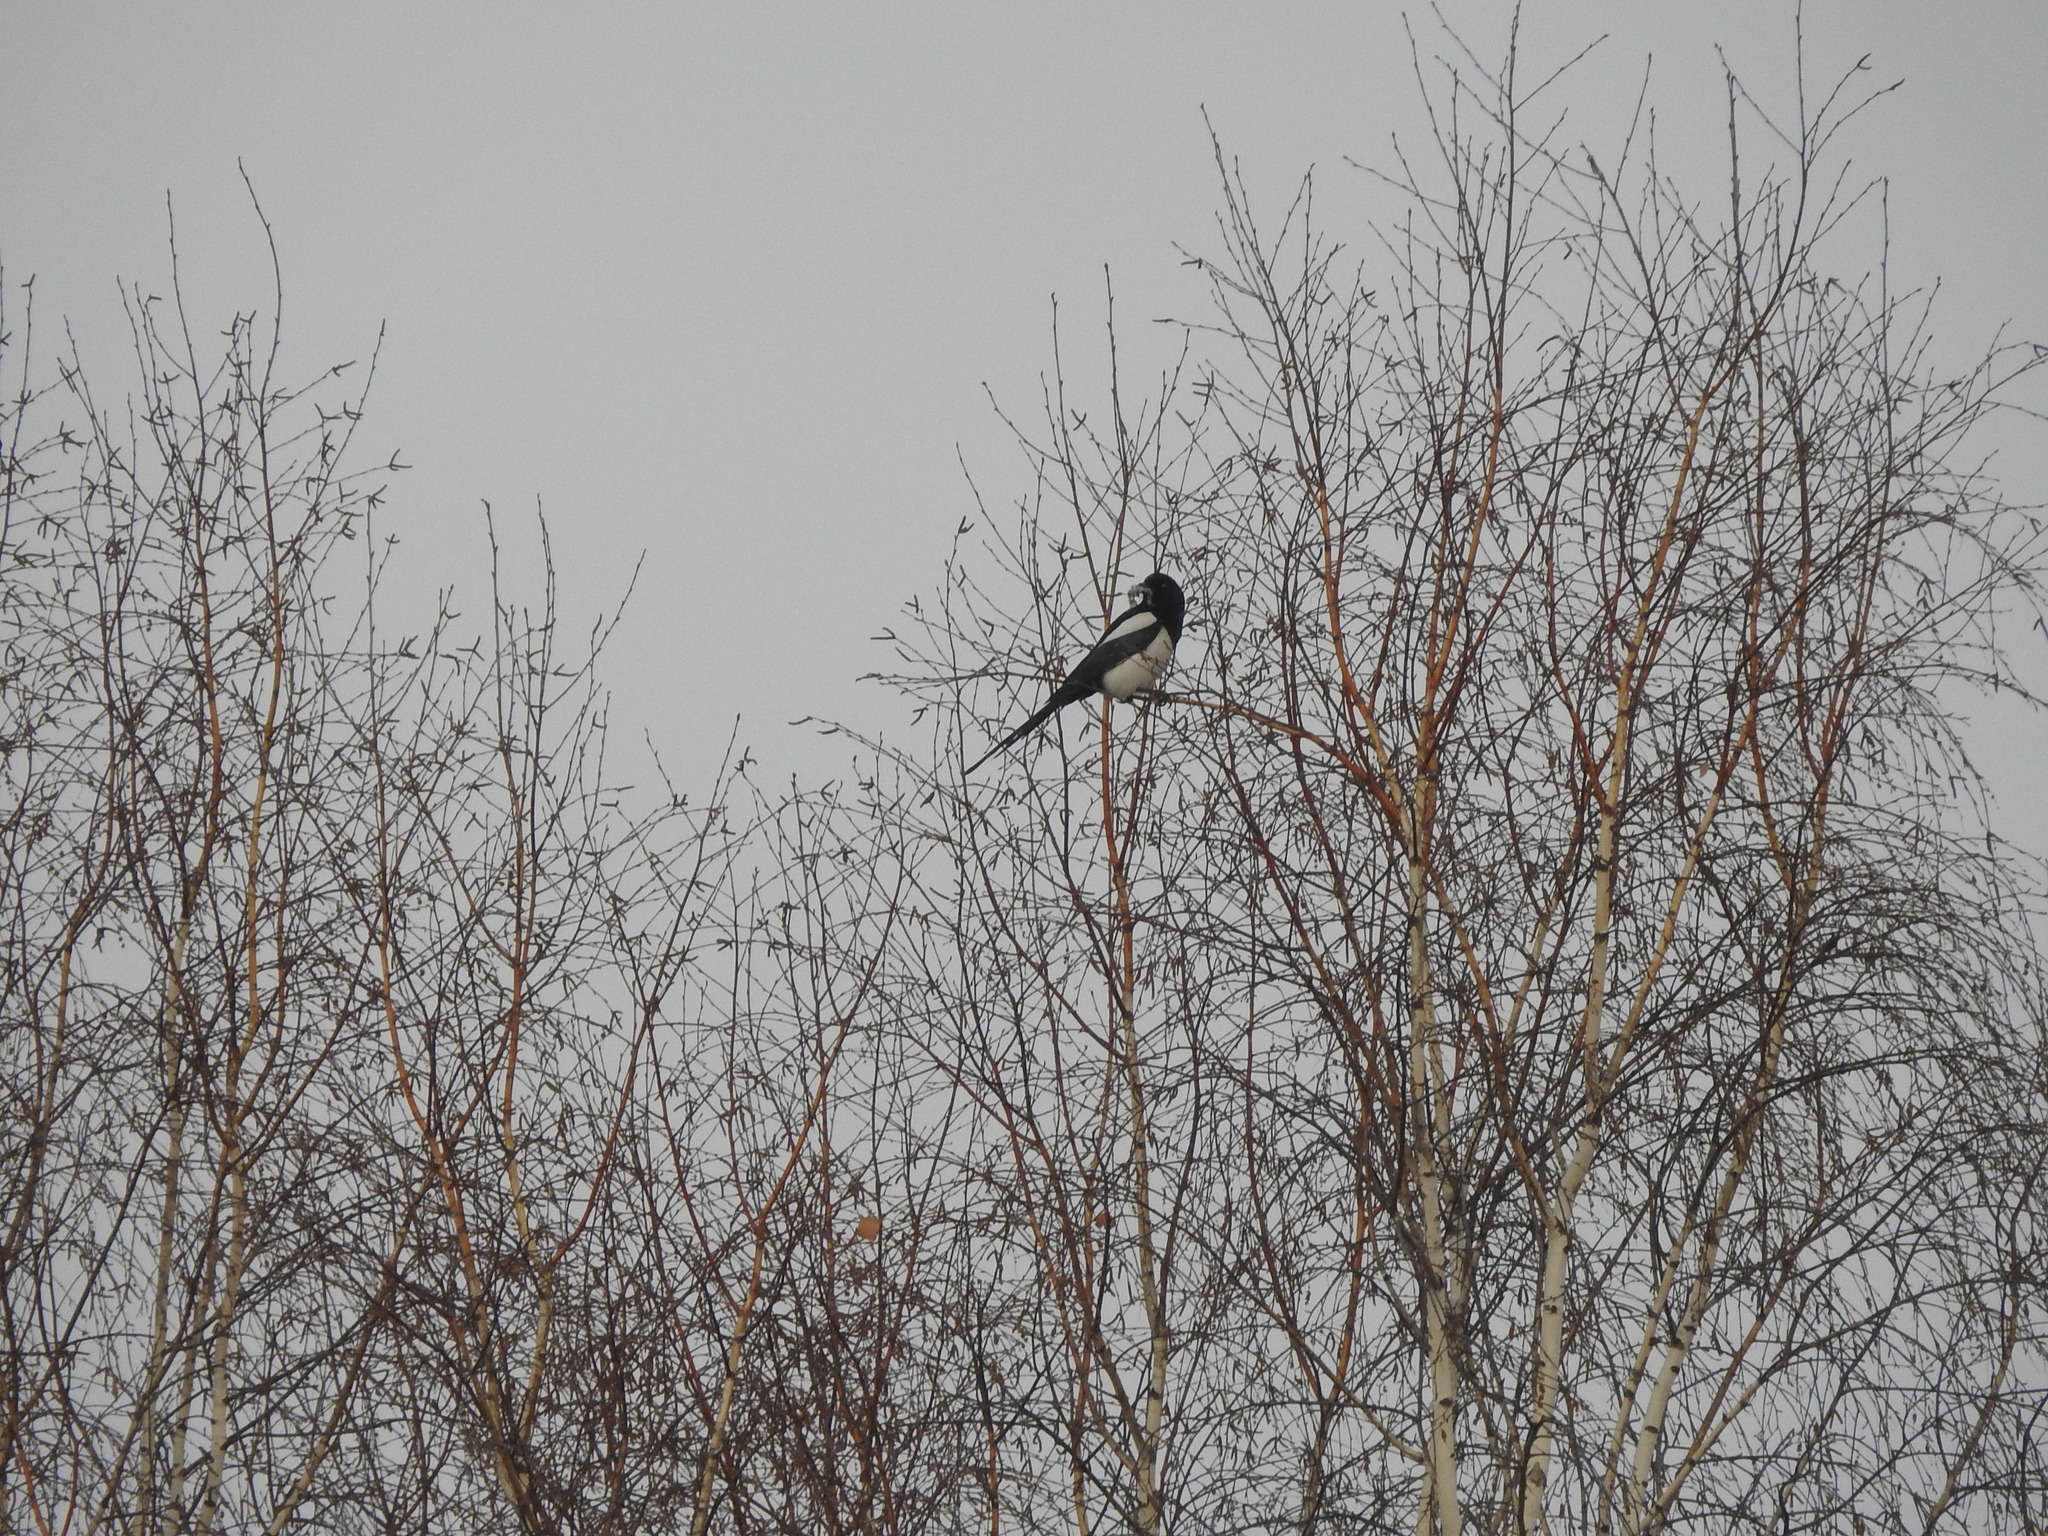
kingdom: Animalia
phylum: Chordata
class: Aves
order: Passeriformes
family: Corvidae
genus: Pica
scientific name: Pica pica
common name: Eurasian magpie
